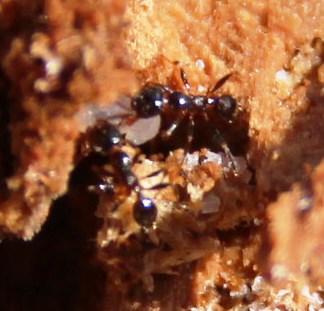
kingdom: Animalia
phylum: Arthropoda
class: Insecta
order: Hymenoptera
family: Formicidae
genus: Monomorium
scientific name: Monomorium torvicte
